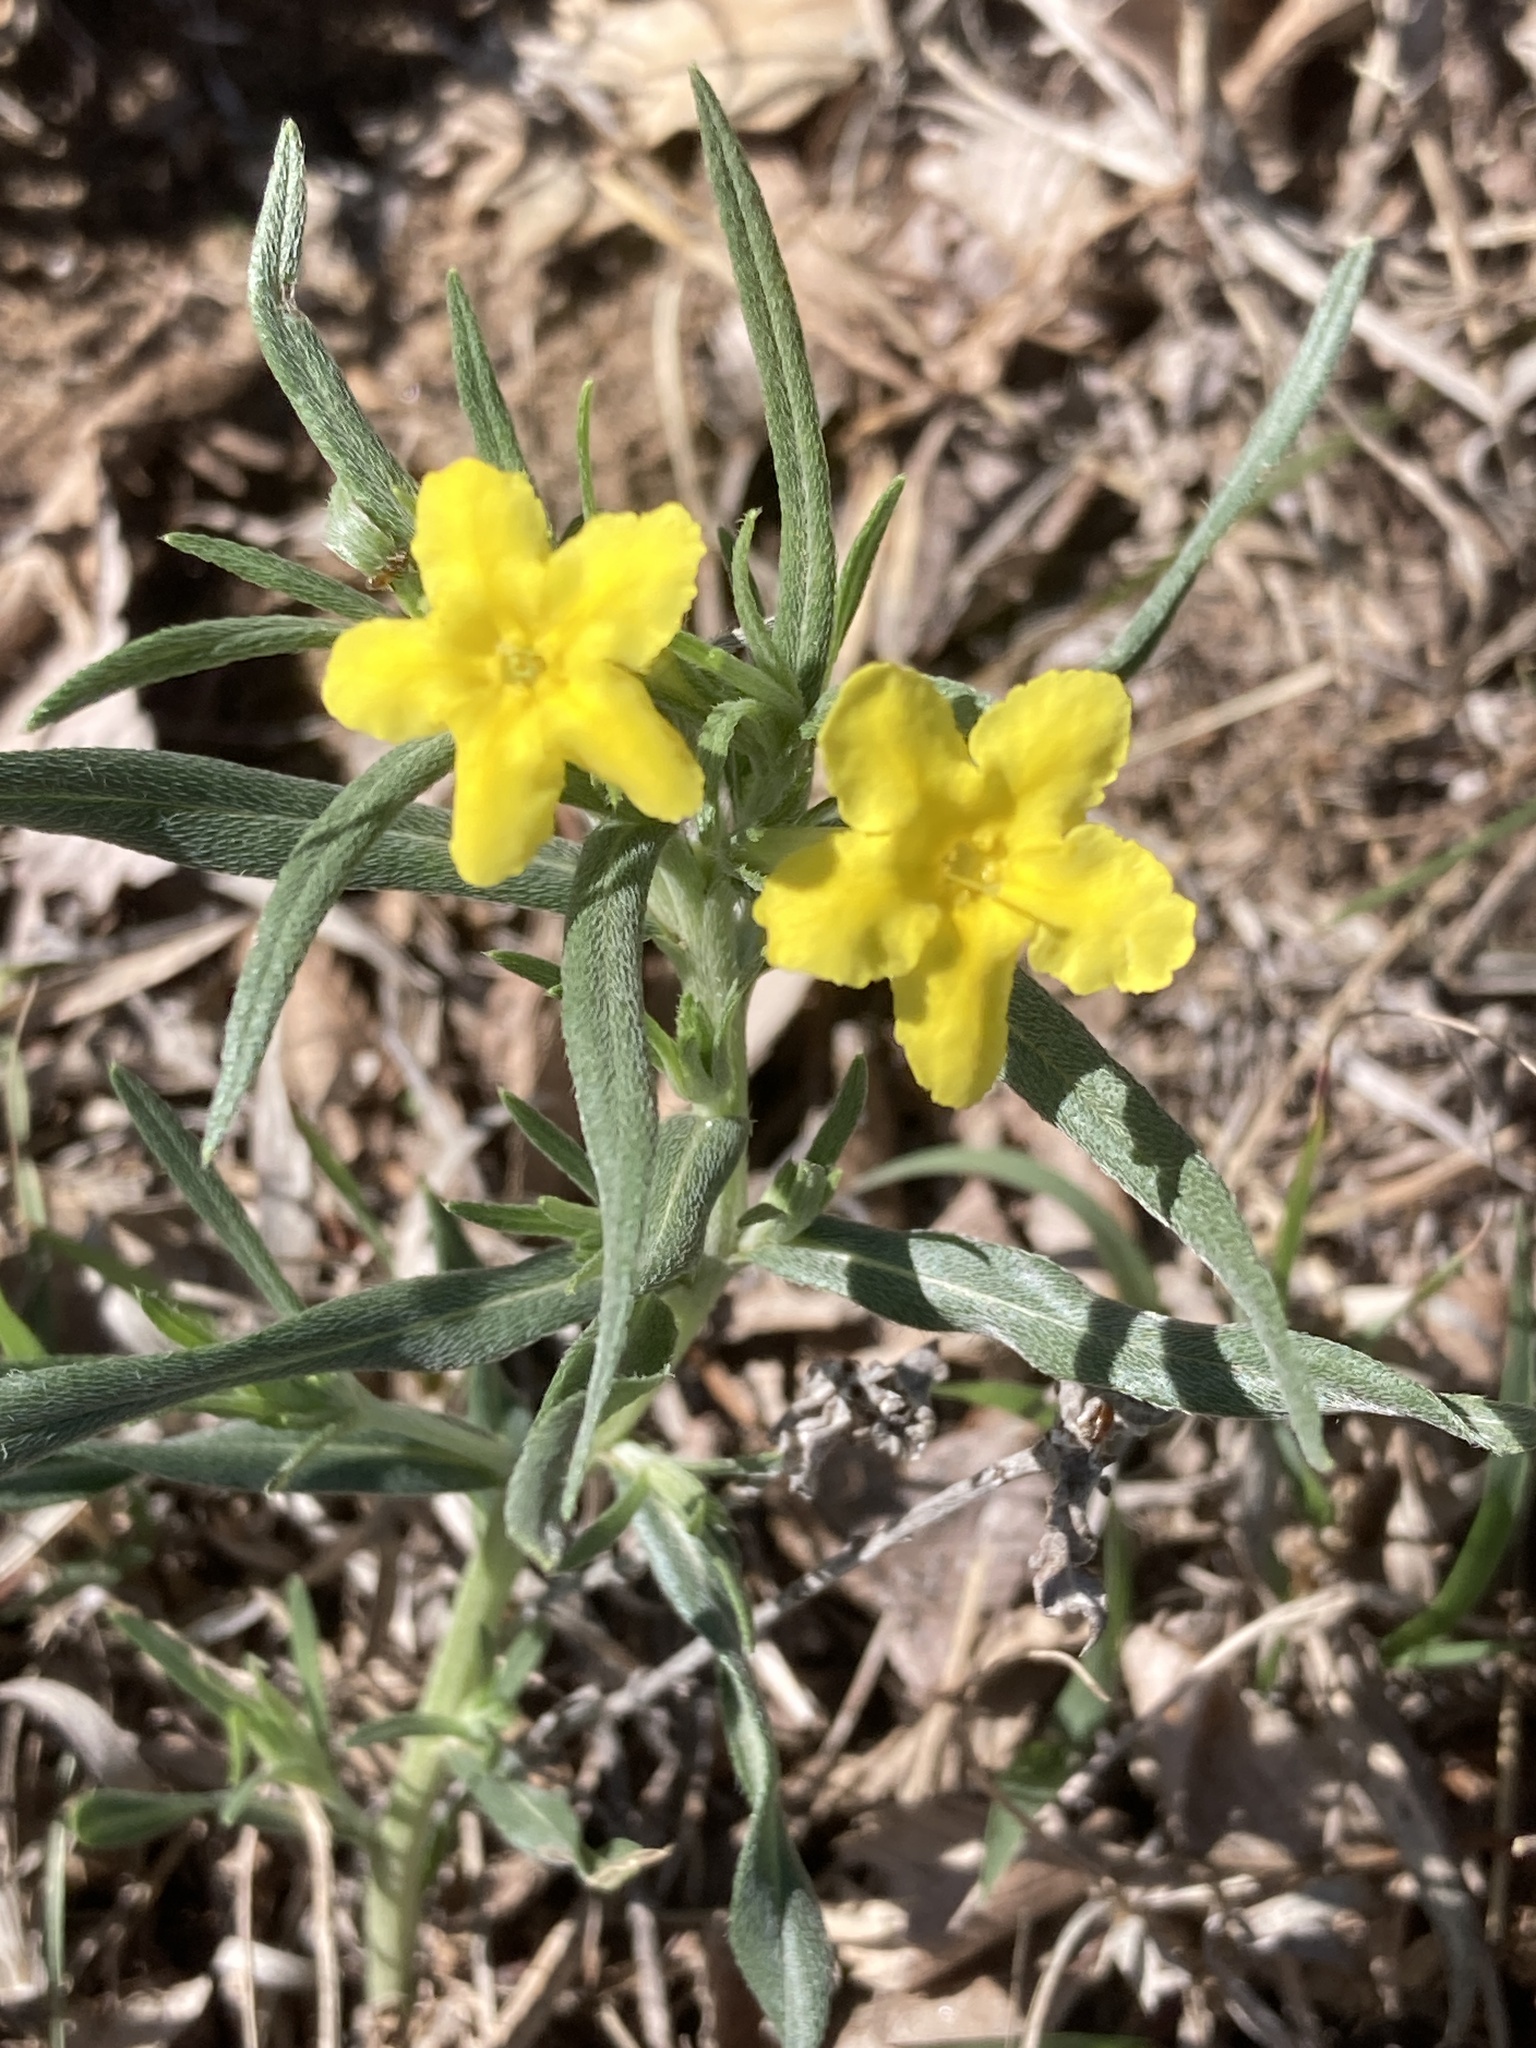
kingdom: Plantae
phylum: Tracheophyta
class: Magnoliopsida
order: Boraginales
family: Boraginaceae
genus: Lithospermum
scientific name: Lithospermum incisum
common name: Fringed gromwell
